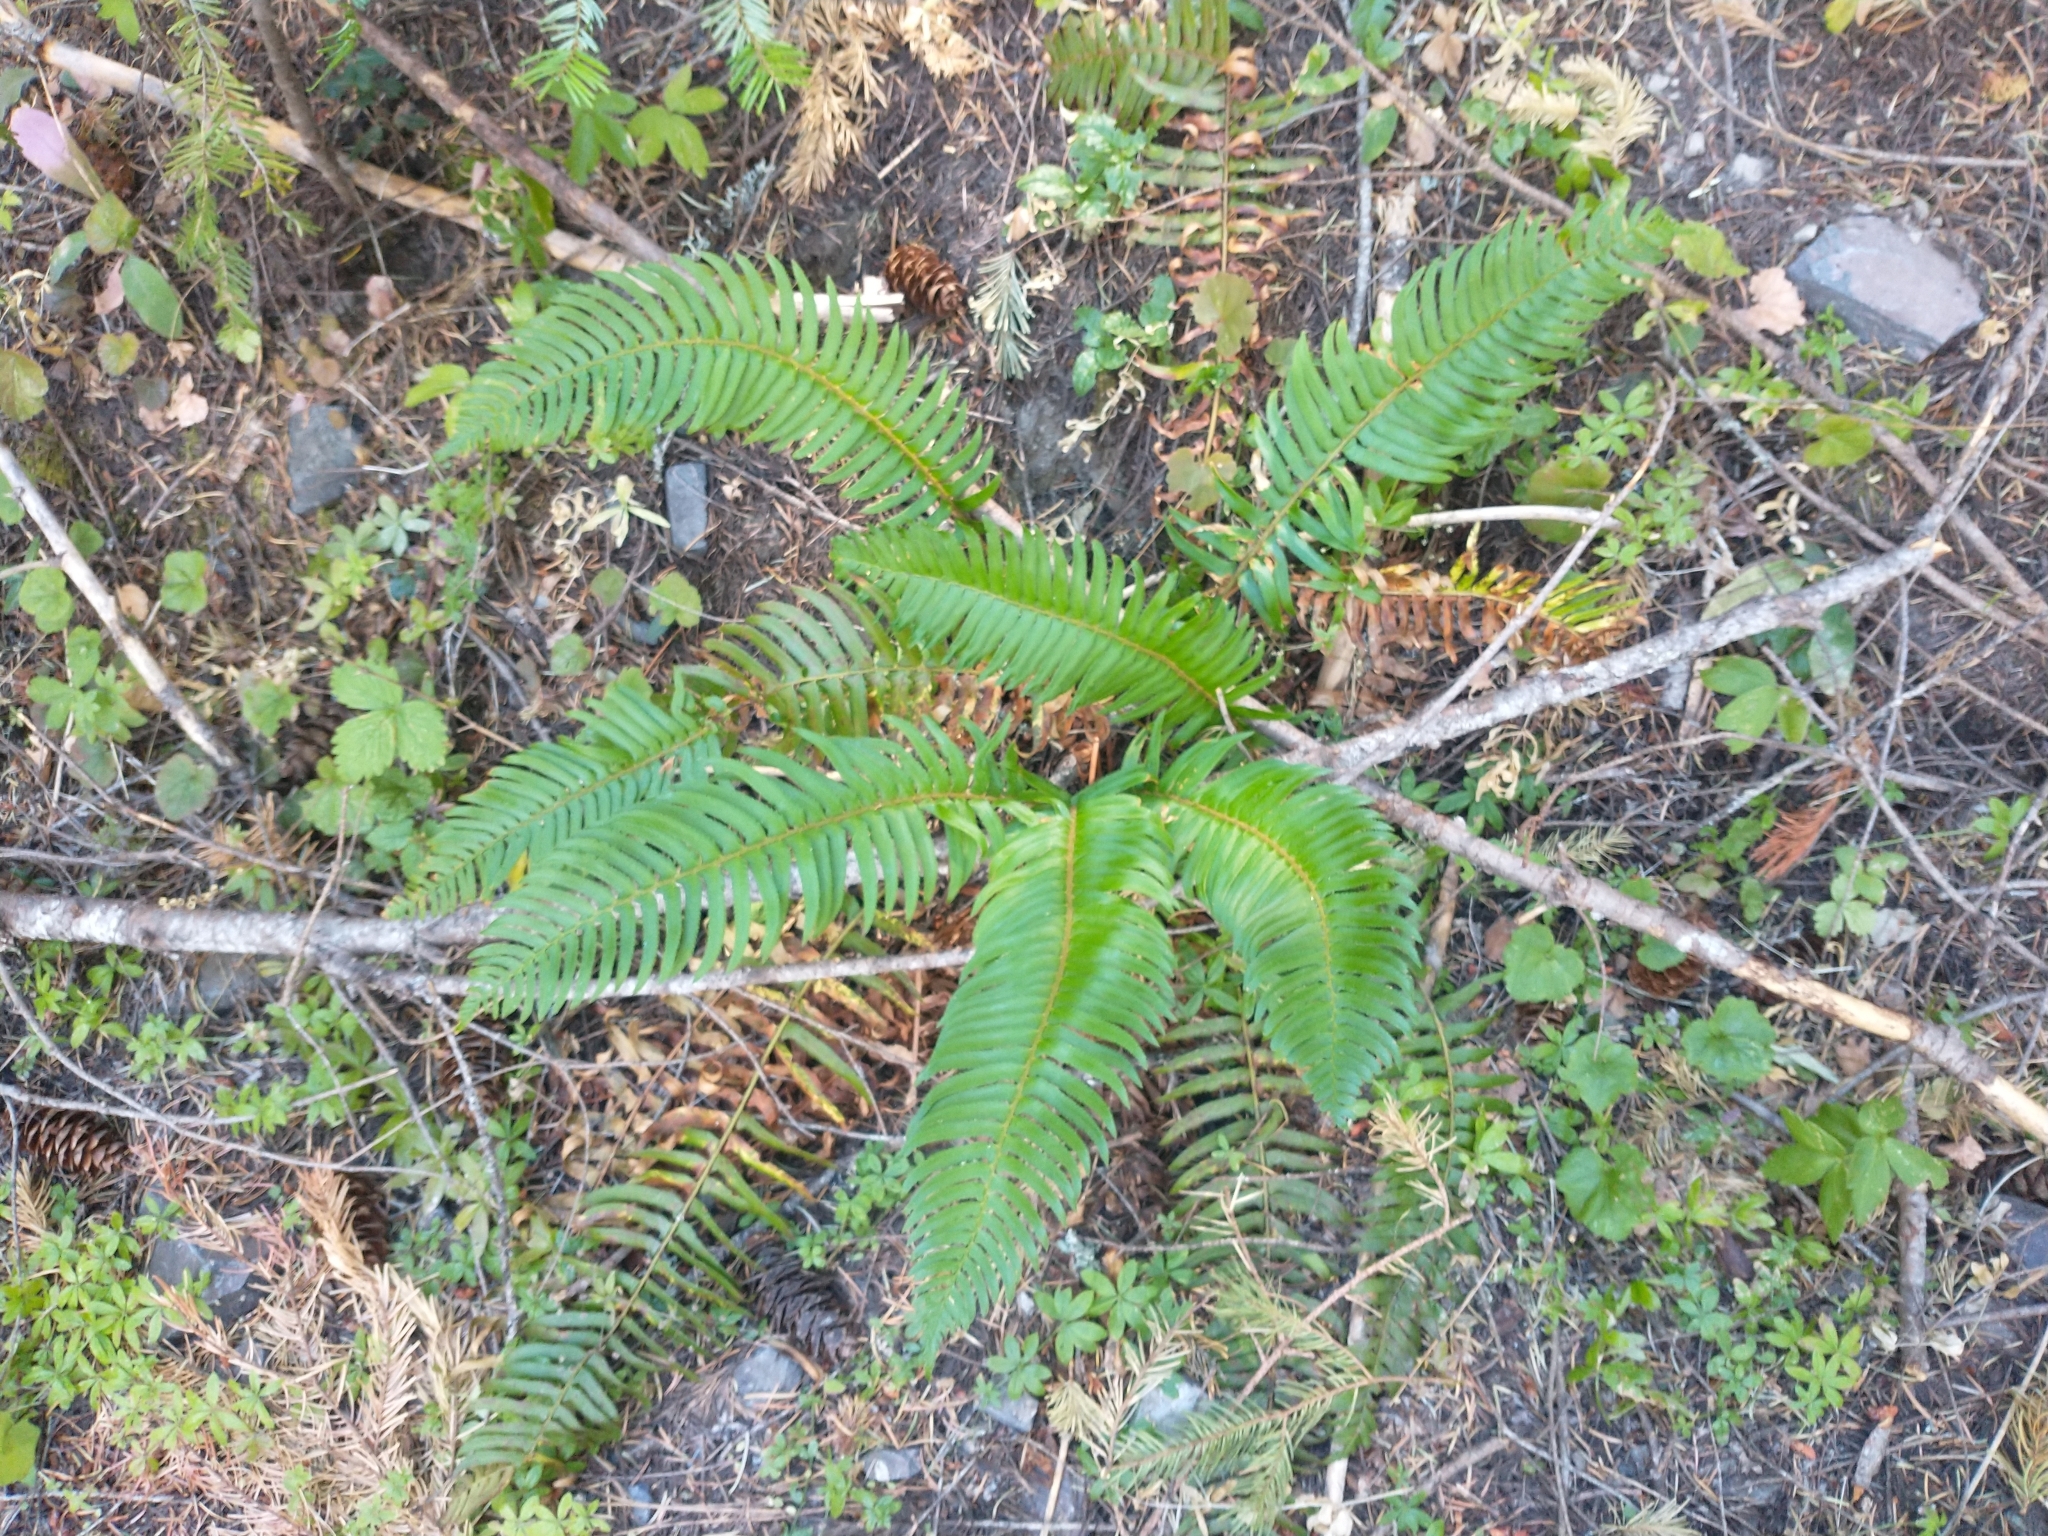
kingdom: Plantae
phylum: Tracheophyta
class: Polypodiopsida
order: Polypodiales
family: Dryopteridaceae
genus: Polystichum
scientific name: Polystichum munitum
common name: Western sword-fern
